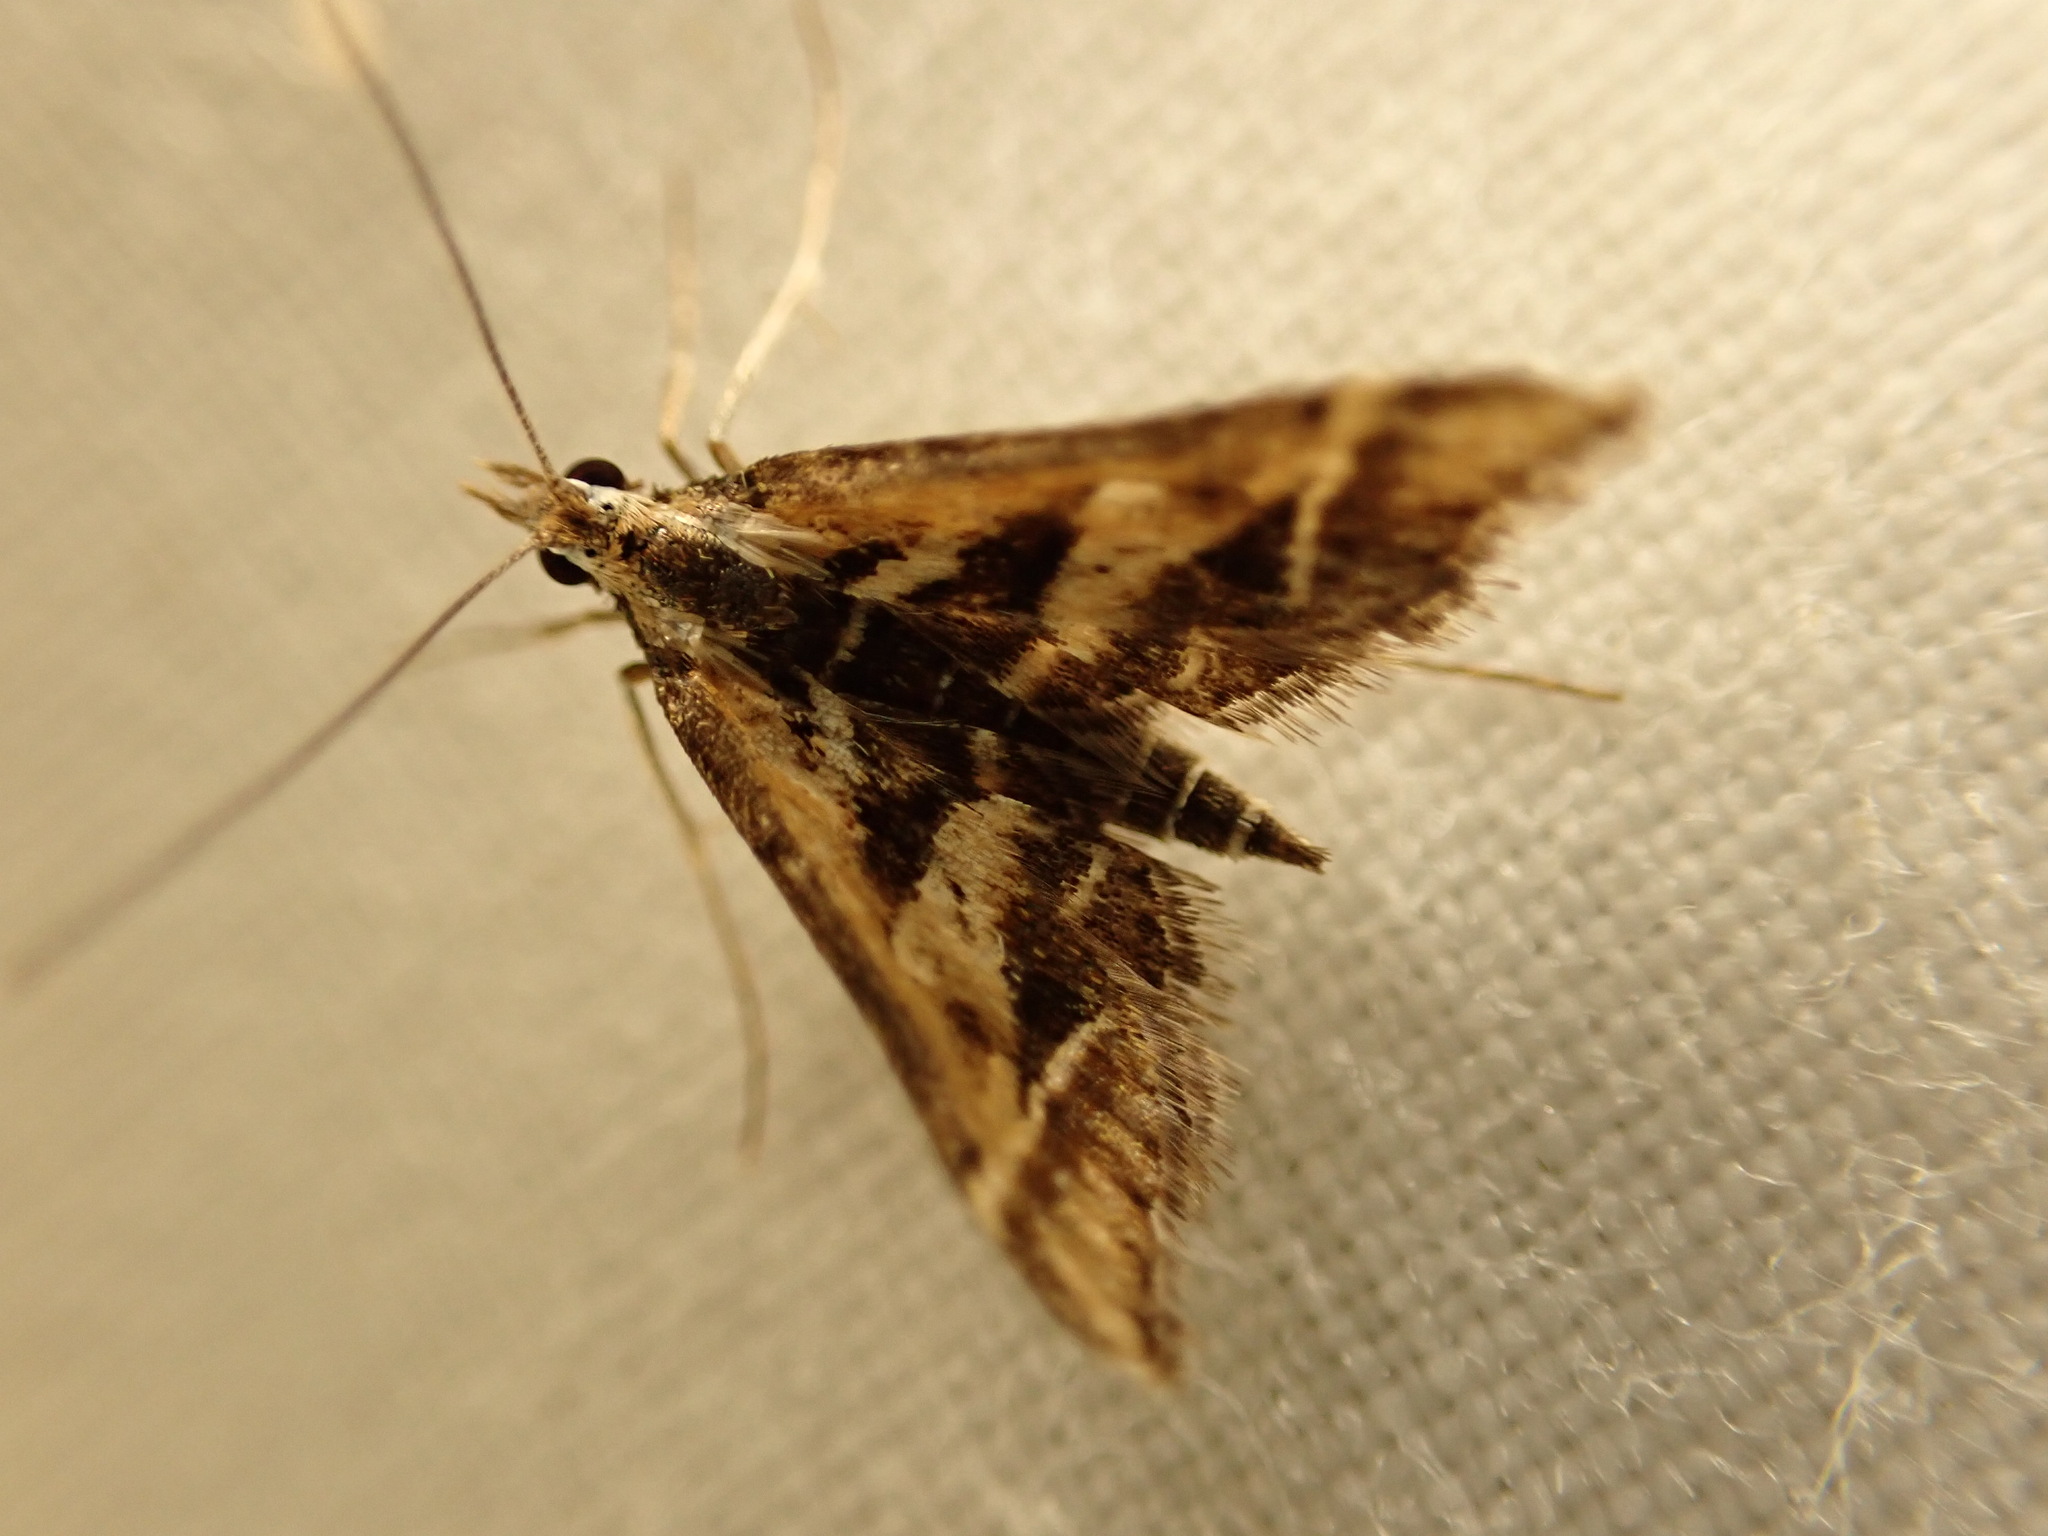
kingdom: Animalia
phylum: Arthropoda
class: Insecta
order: Lepidoptera
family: Crambidae
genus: Diasemia
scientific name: Diasemia grammalis
